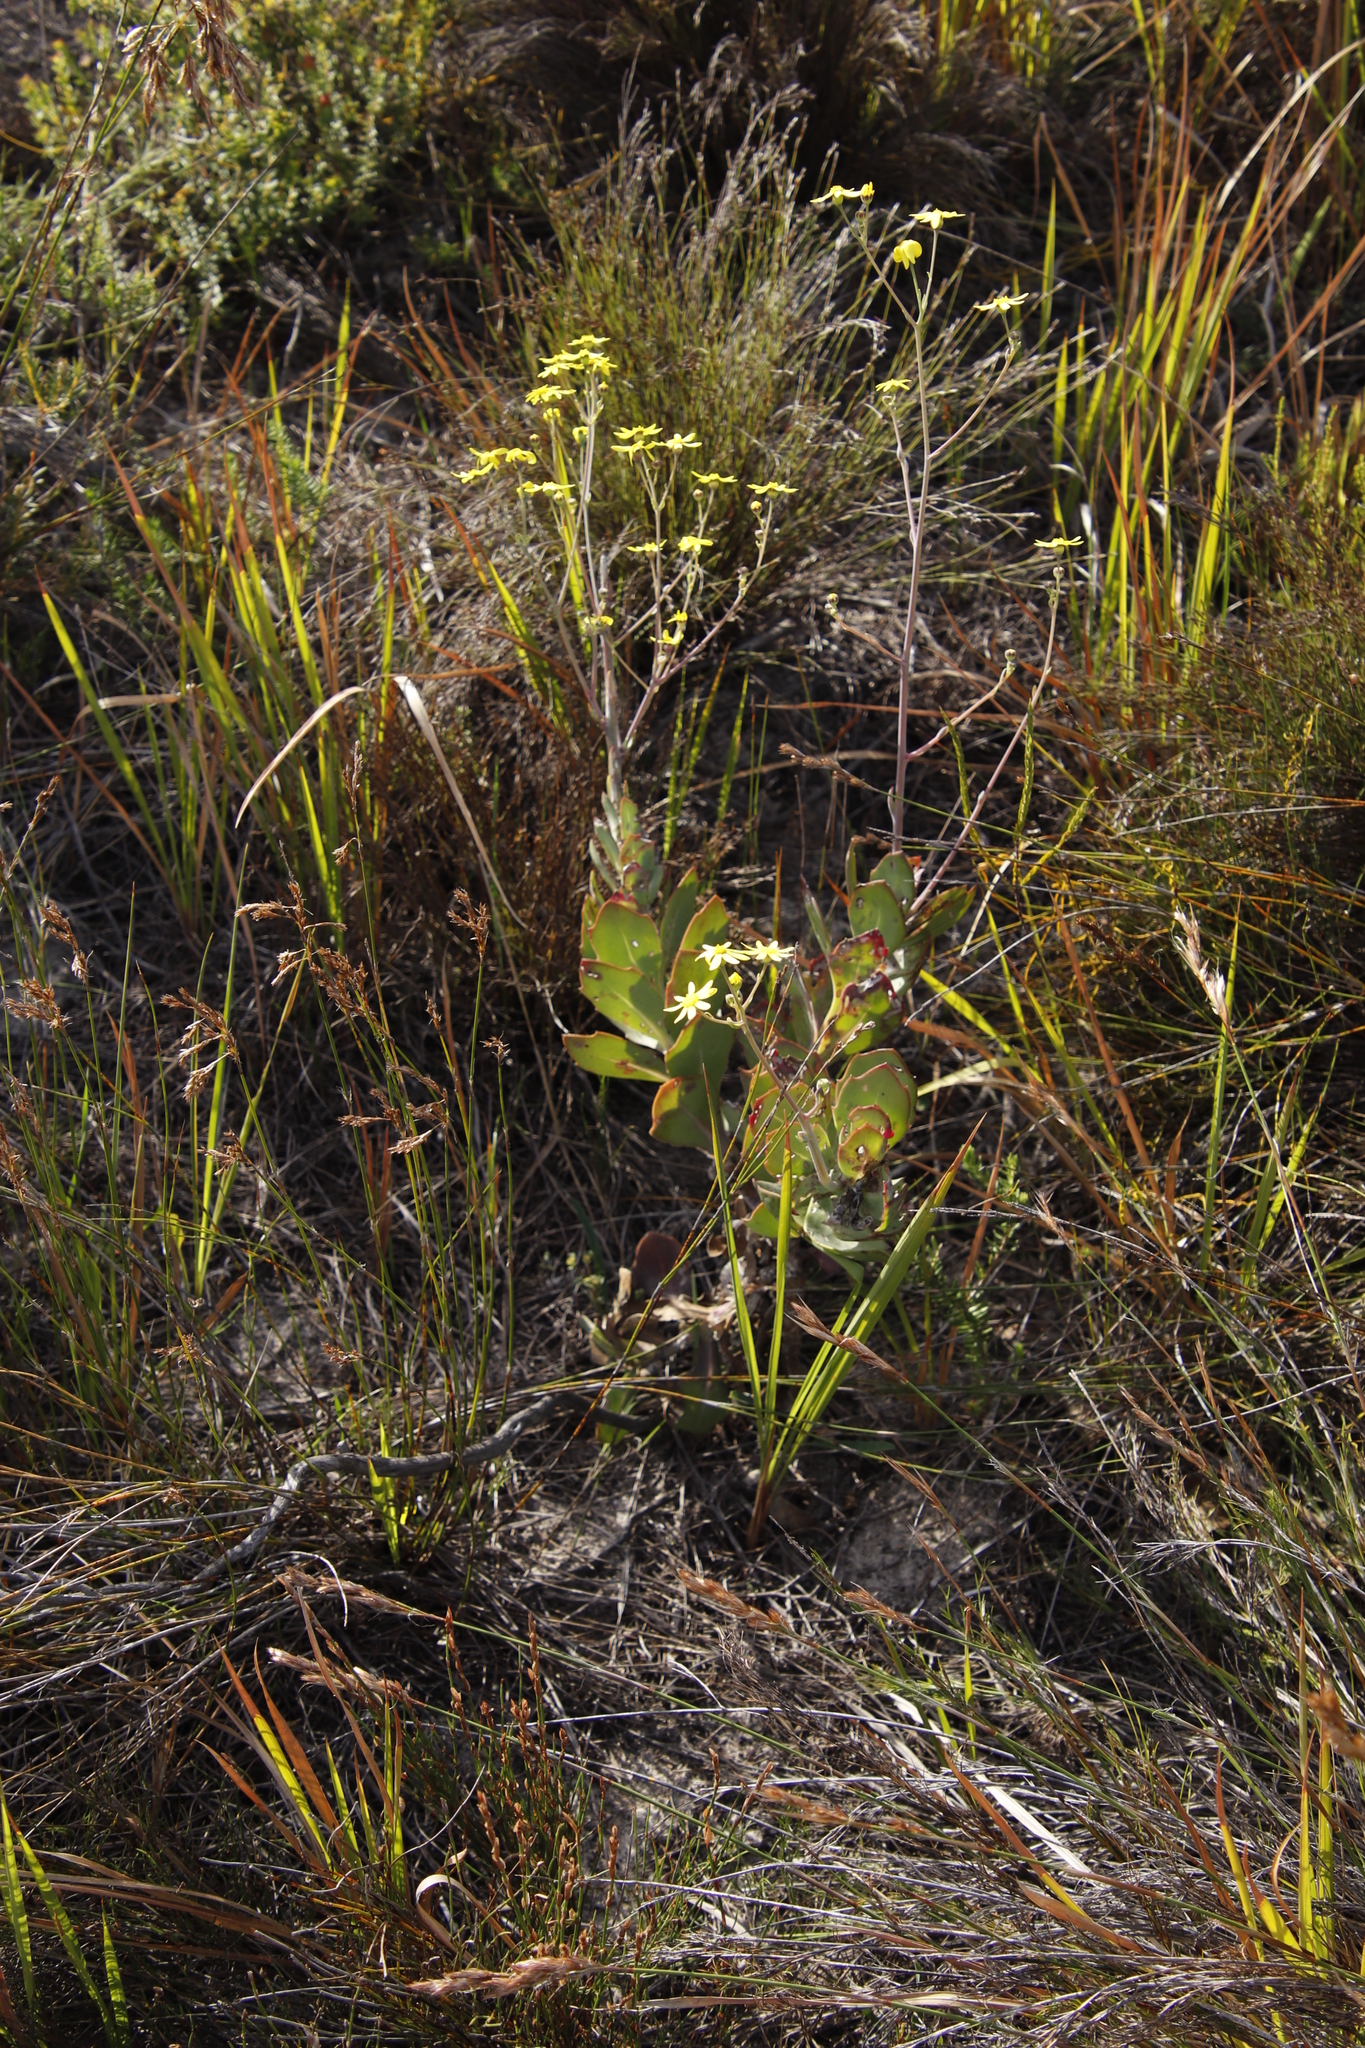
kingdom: Plantae
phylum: Tracheophyta
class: Magnoliopsida
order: Asterales
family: Asteraceae
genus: Othonna
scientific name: Othonna quinquedentata
